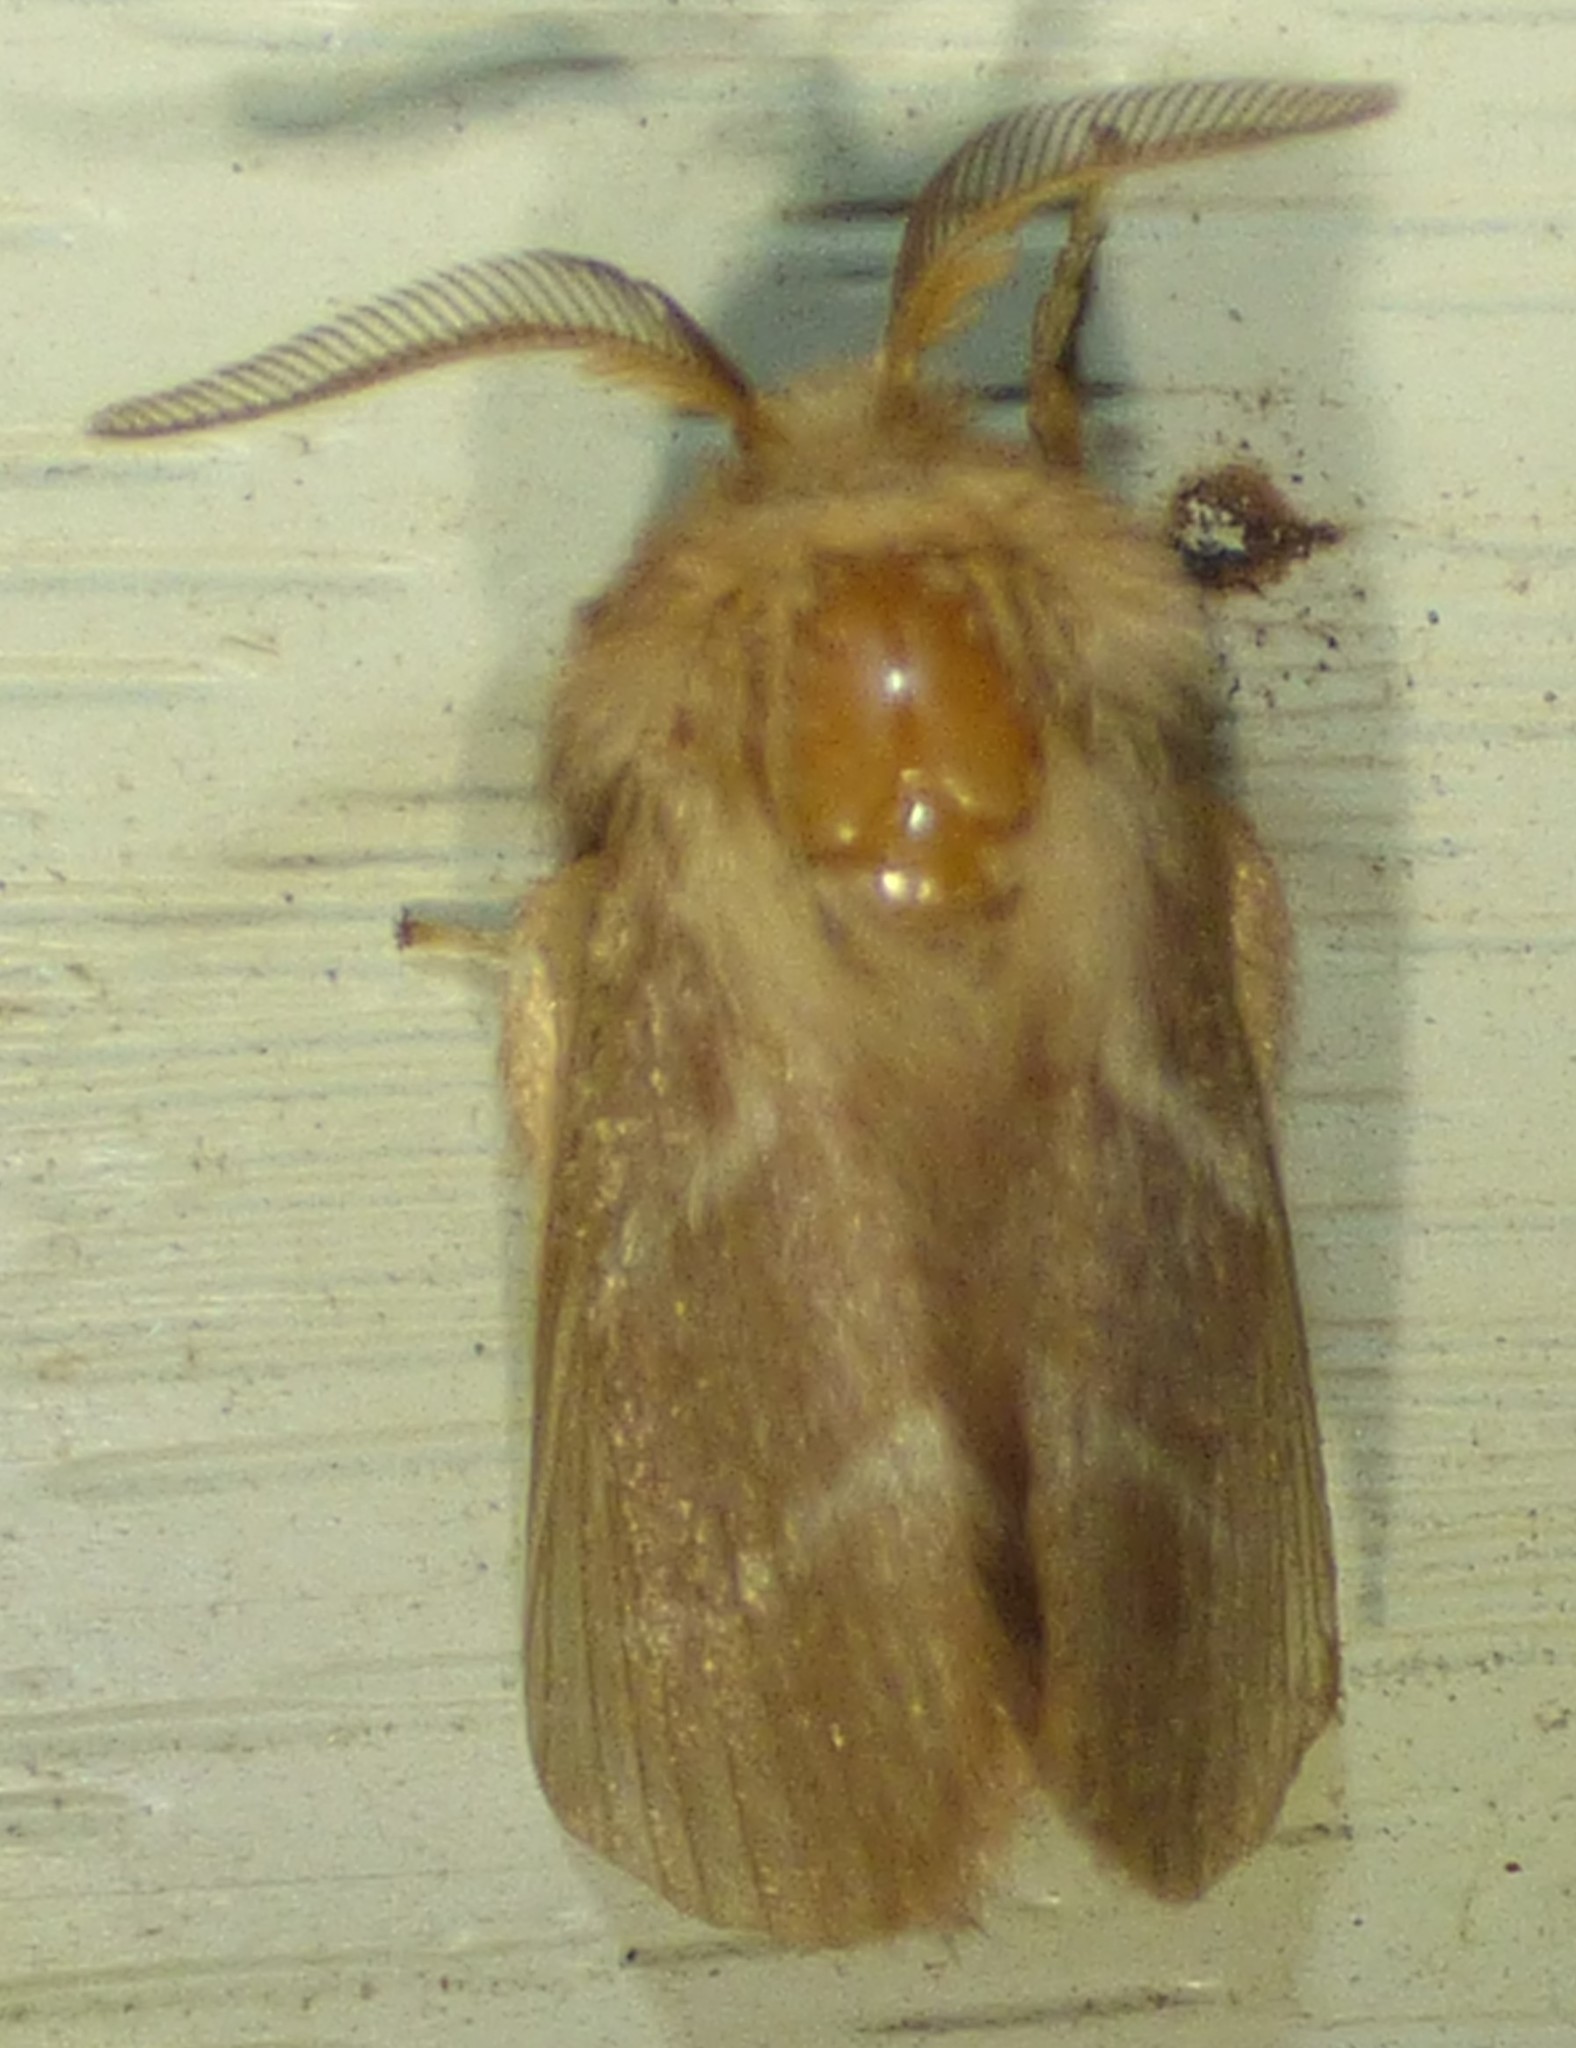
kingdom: Animalia
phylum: Arthropoda
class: Insecta
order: Lepidoptera
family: Lasiocampidae
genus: Malacosoma
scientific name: Malacosoma americana
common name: Eastern tent caterpillar moth
